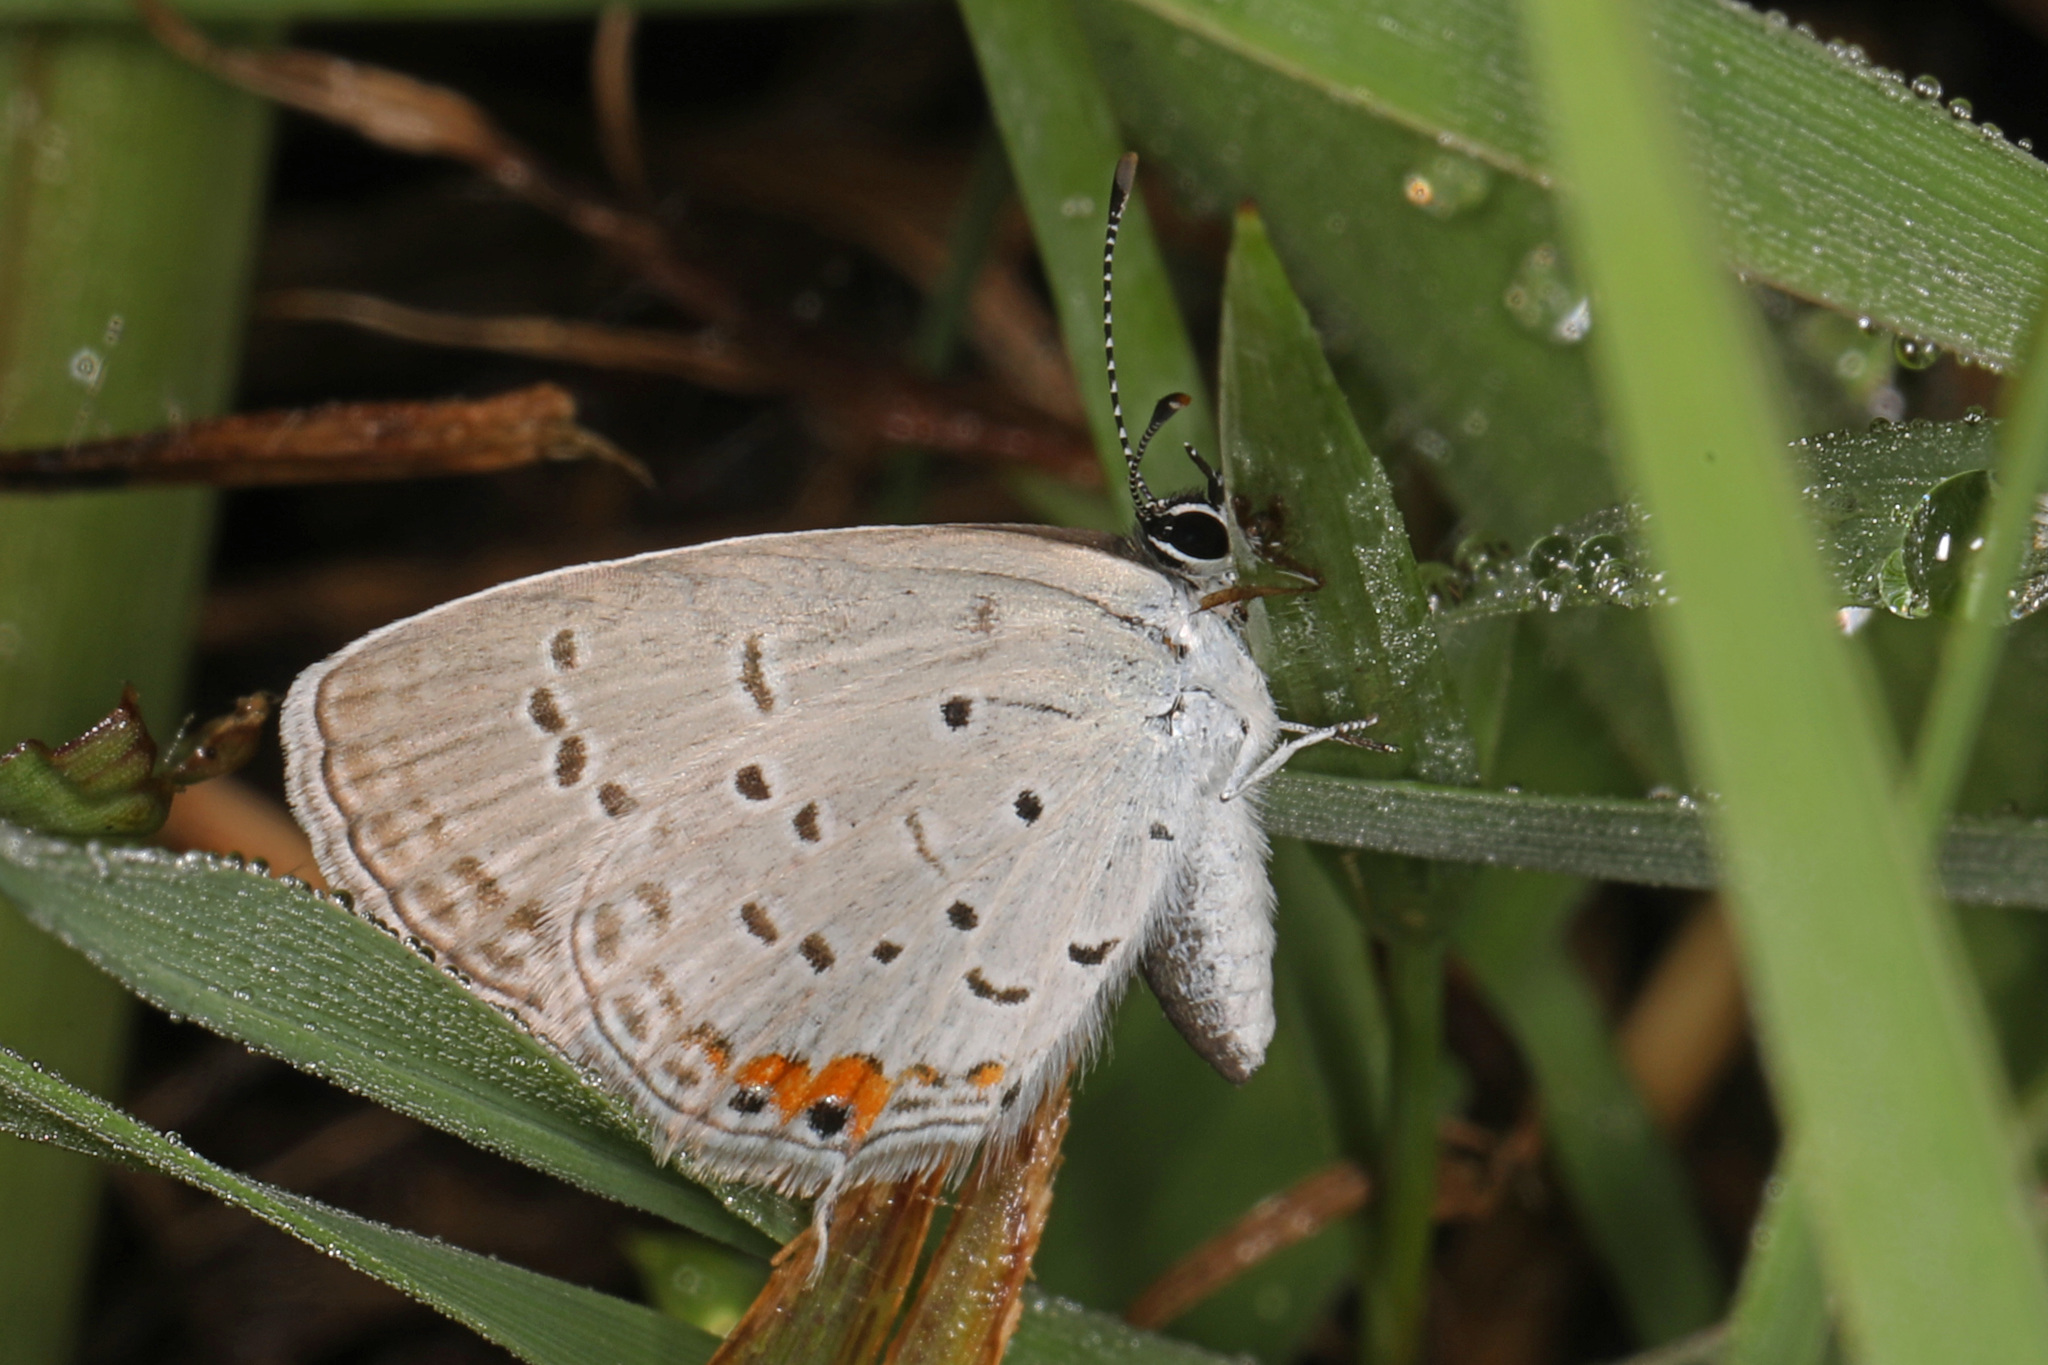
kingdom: Animalia
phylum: Arthropoda
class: Insecta
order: Lepidoptera
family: Lycaenidae
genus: Elkalyce
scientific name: Elkalyce comyntas
